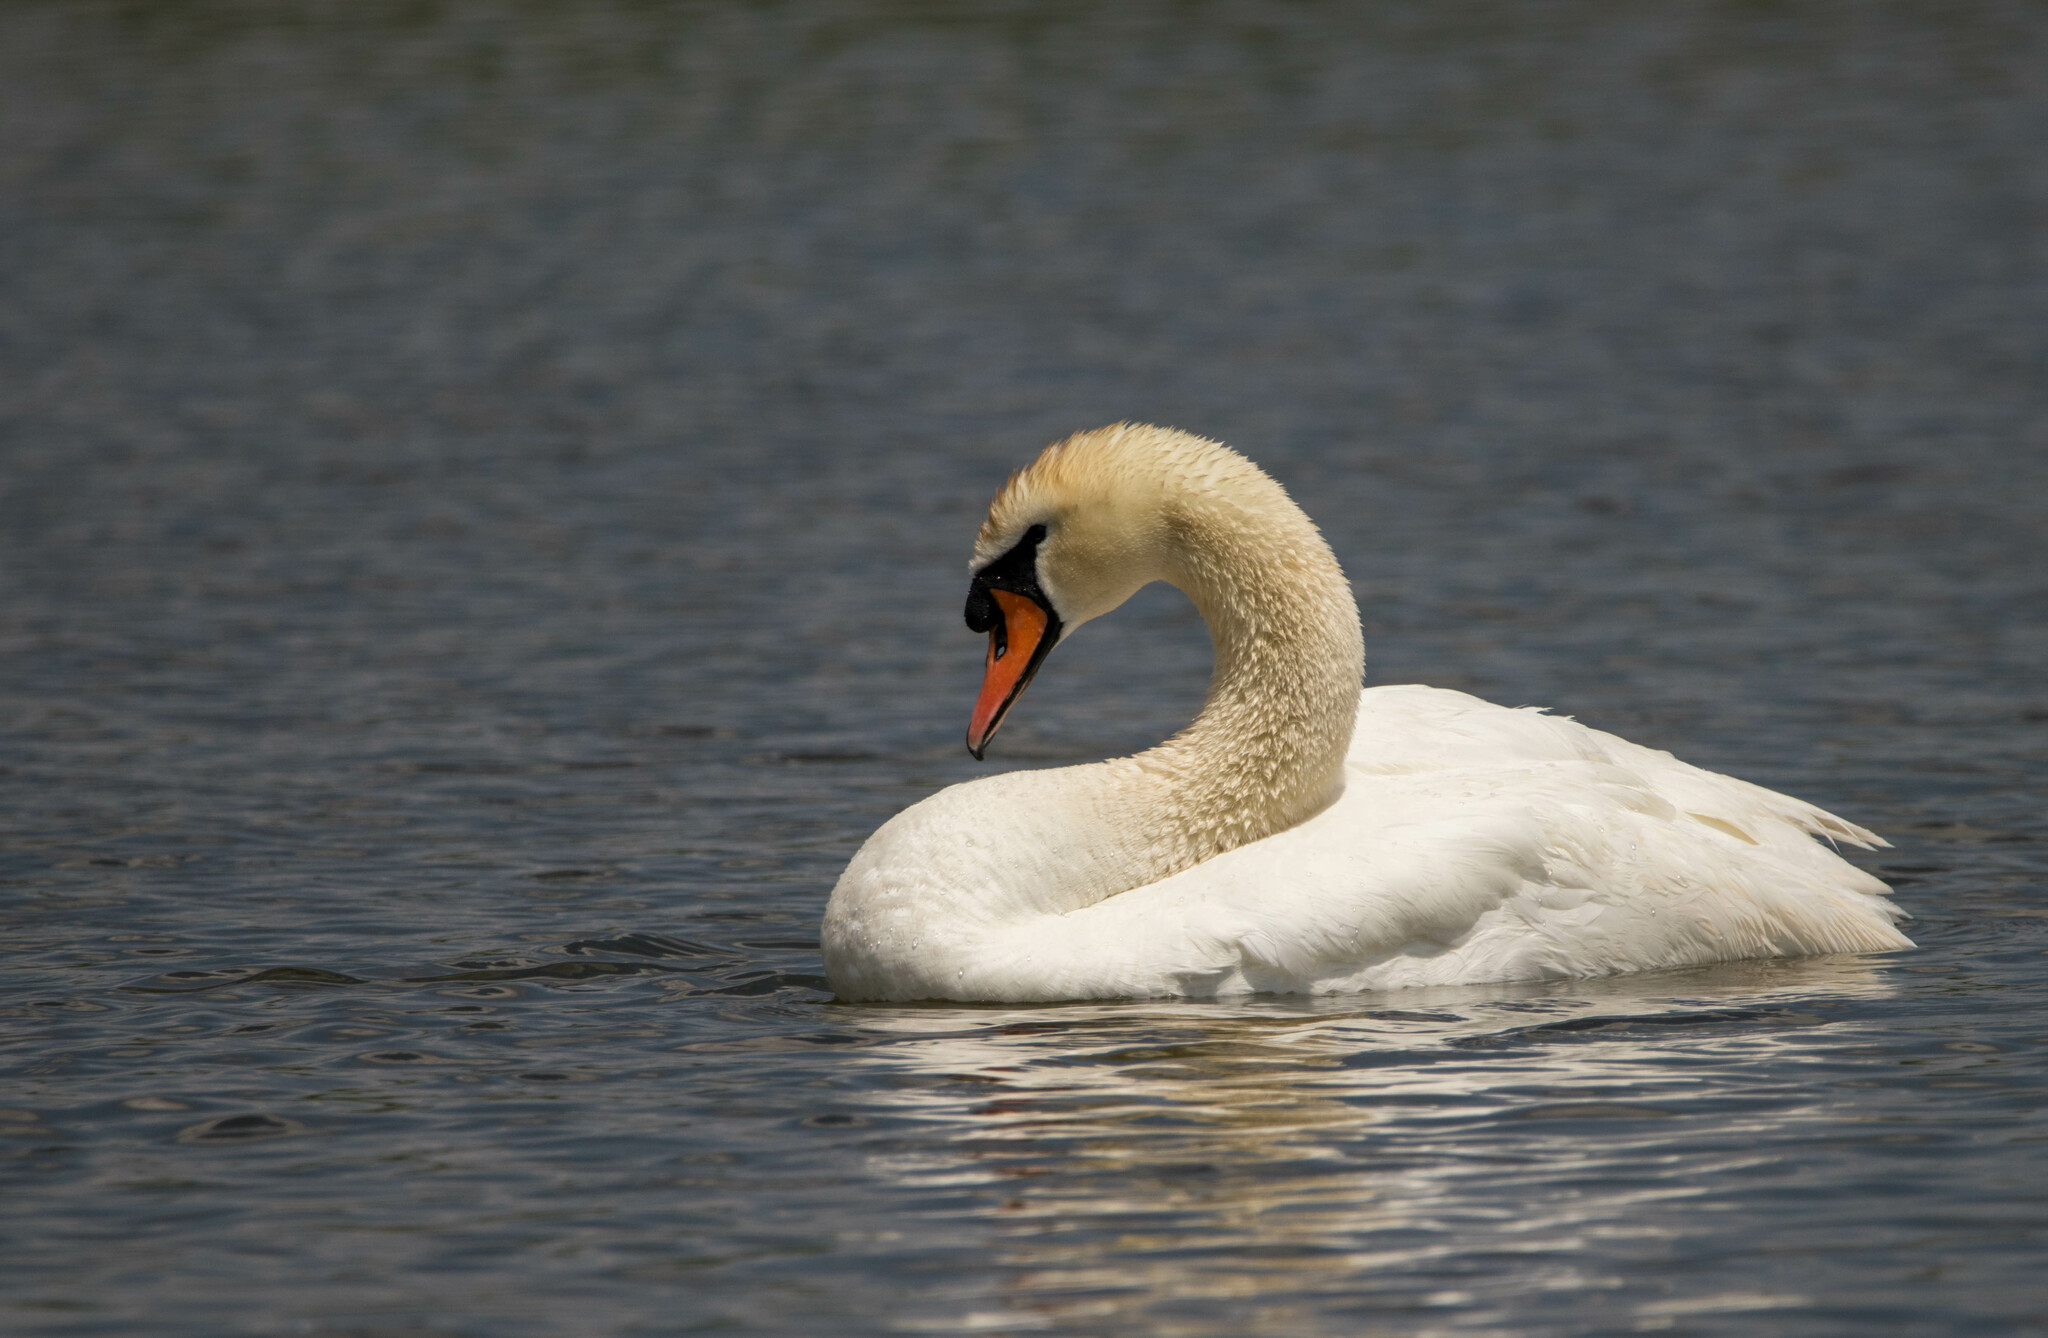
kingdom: Animalia
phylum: Chordata
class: Aves
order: Anseriformes
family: Anatidae
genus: Cygnus
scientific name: Cygnus olor
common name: Mute swan
